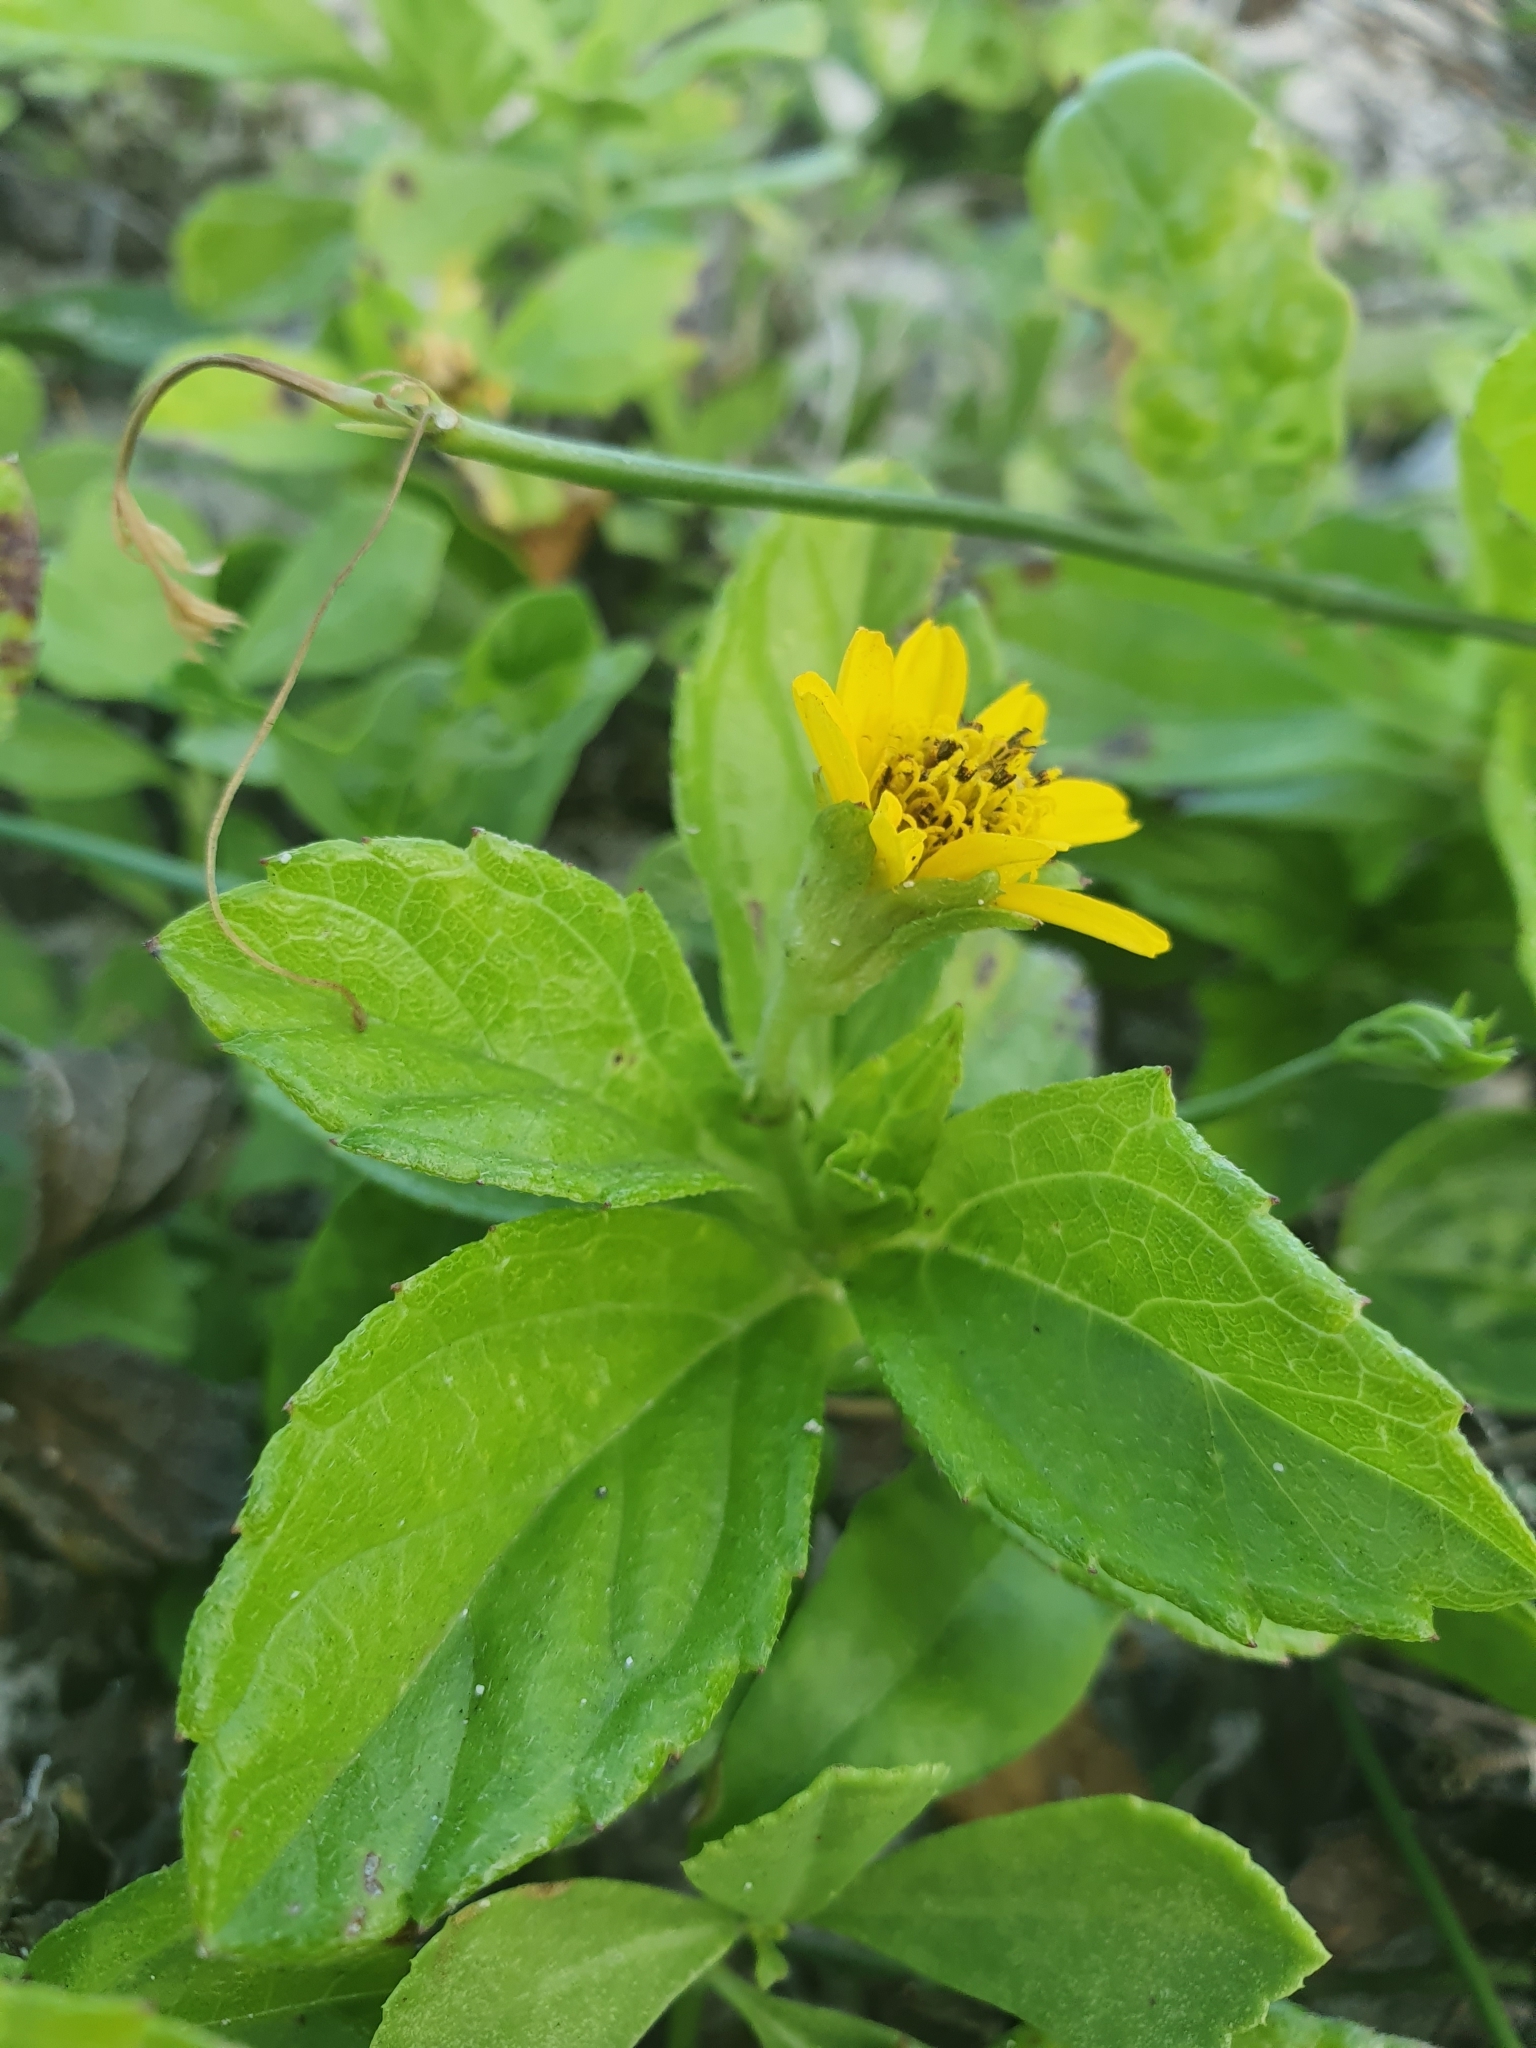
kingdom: Plantae
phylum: Tracheophyta
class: Magnoliopsida
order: Asterales
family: Asteraceae
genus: Sphagneticola
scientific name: Sphagneticola trilobata
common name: Bay biscayne creeping-oxeye
